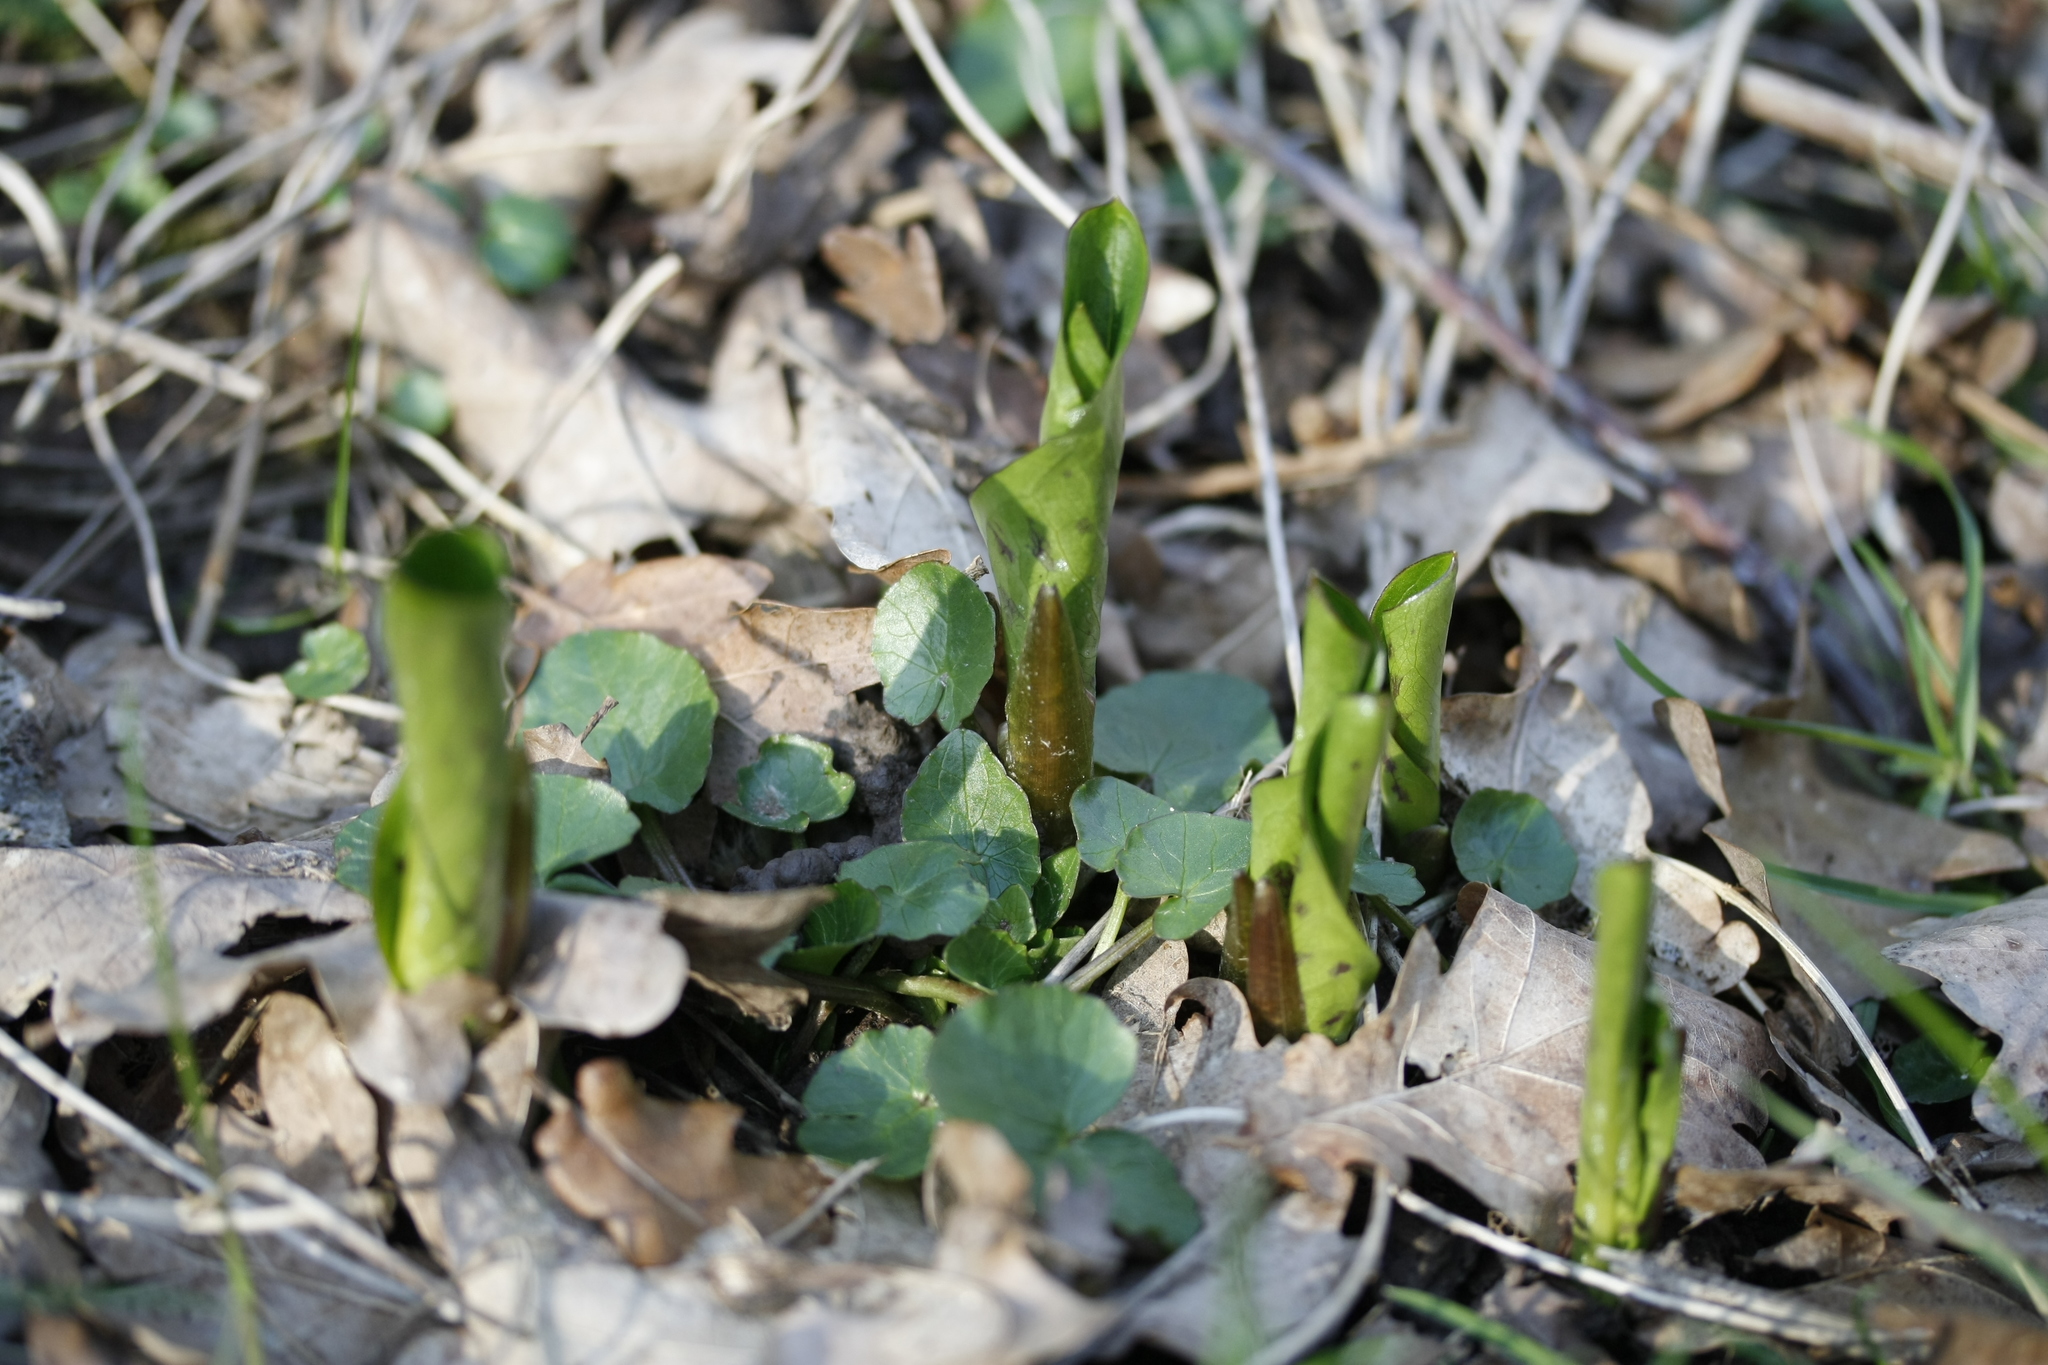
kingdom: Plantae
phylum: Tracheophyta
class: Liliopsida
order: Alismatales
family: Araceae
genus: Arum
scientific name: Arum maculatum
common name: Lords-and-ladies
